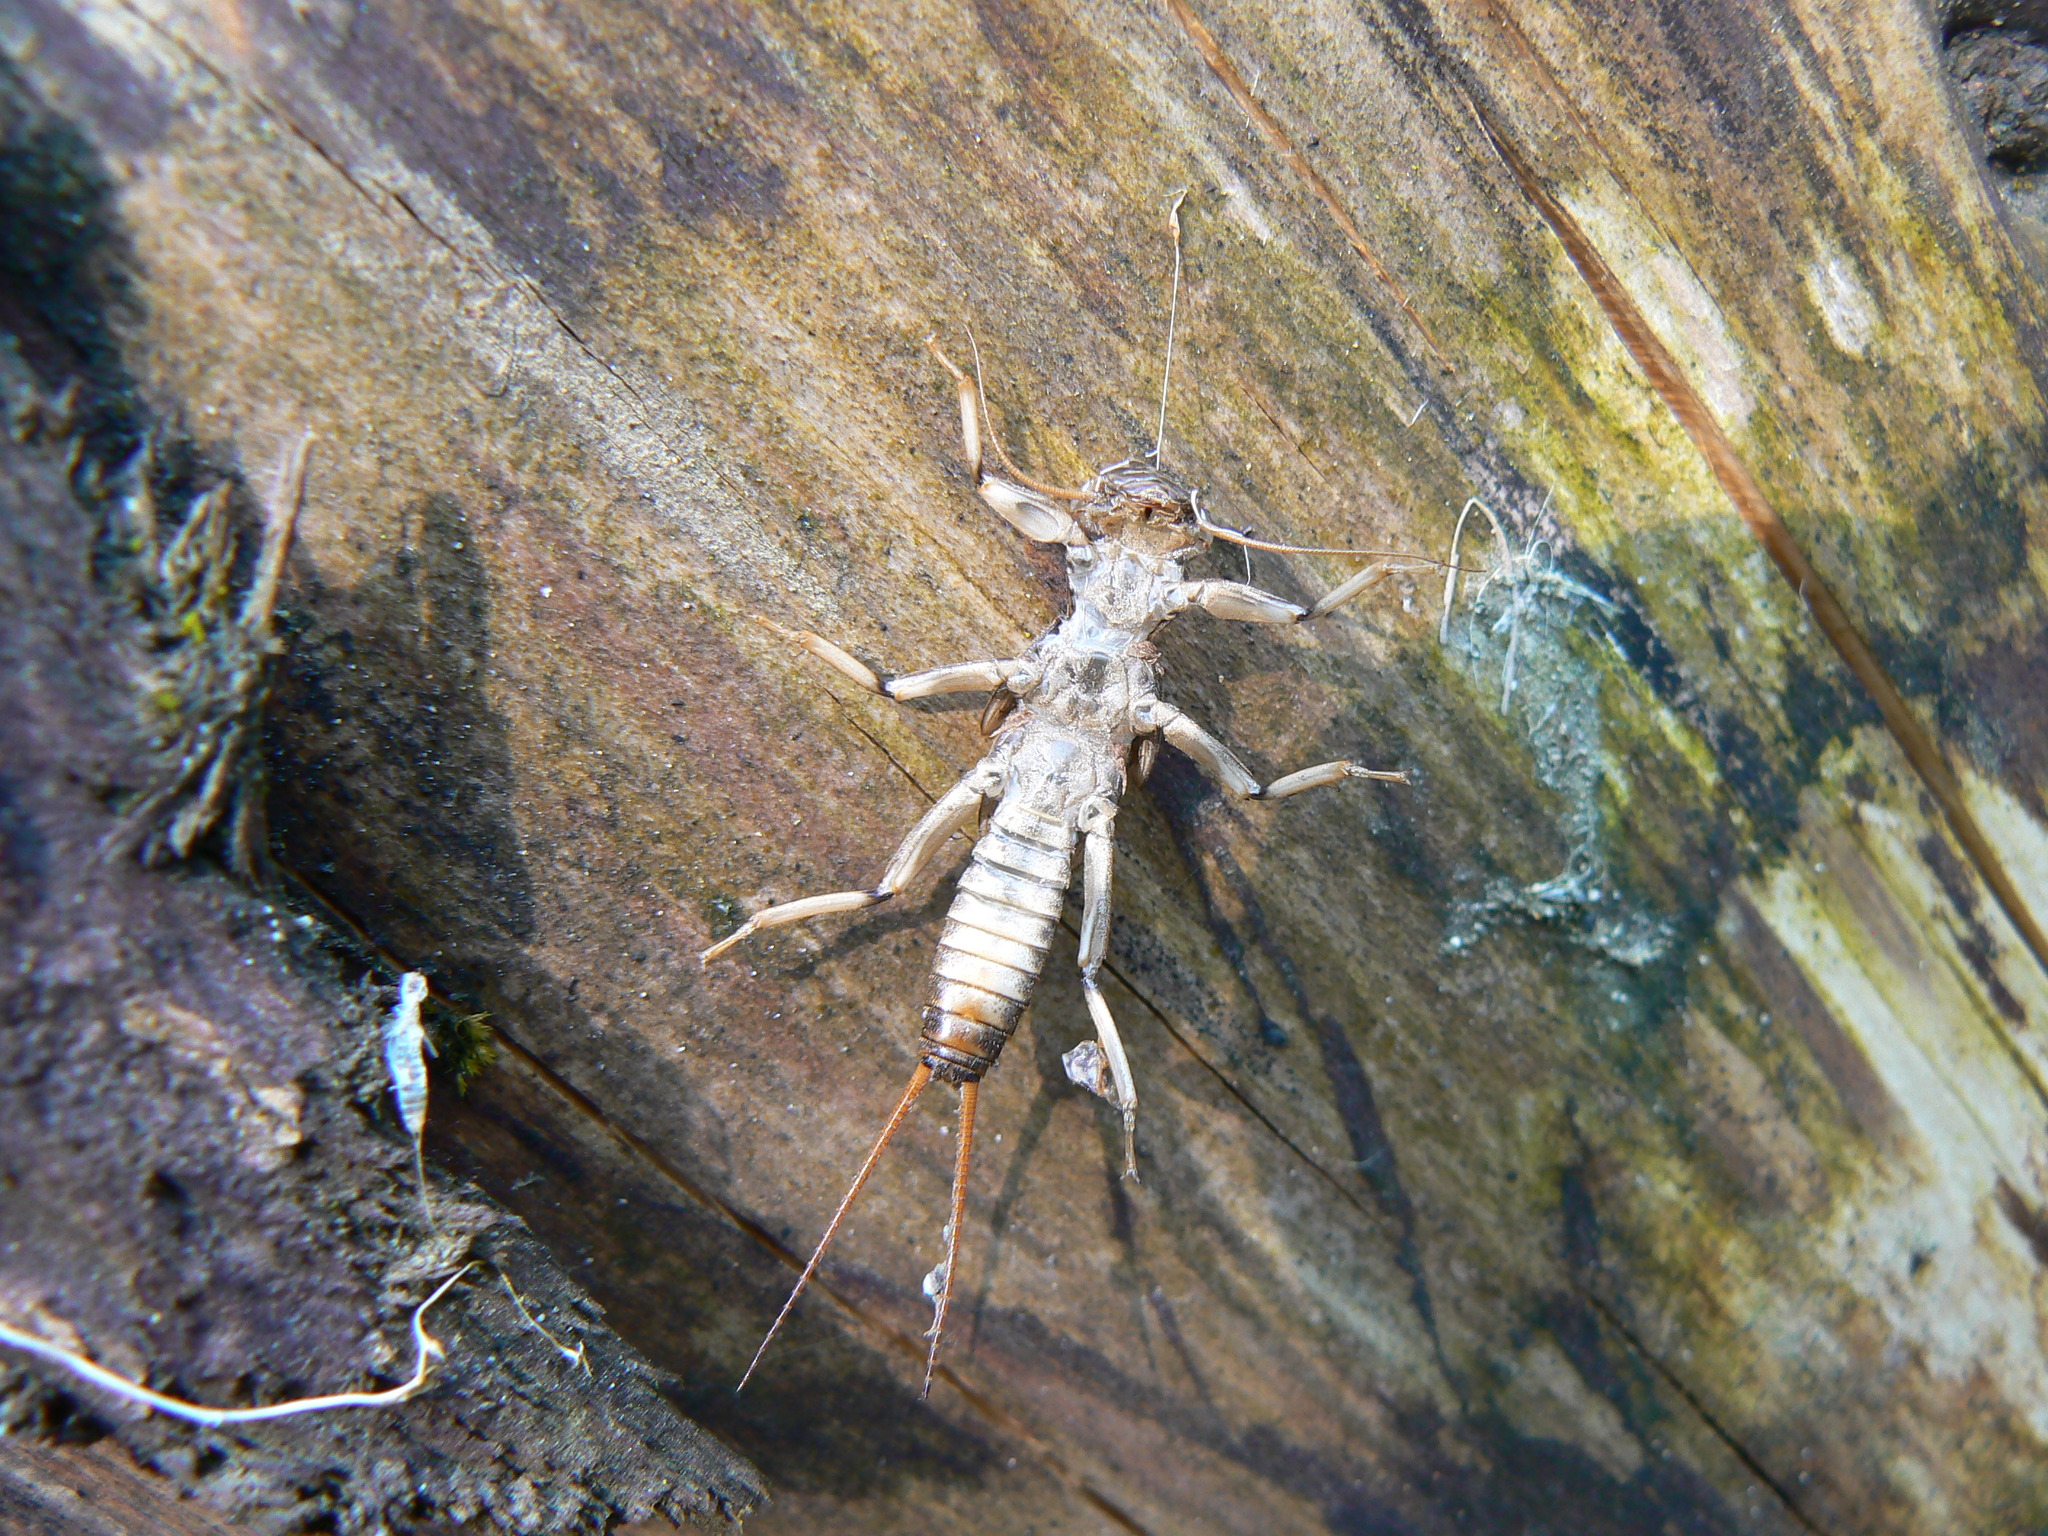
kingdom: Animalia
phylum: Arthropoda
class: Insecta
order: Plecoptera
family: Perlidae
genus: Hesperoperla
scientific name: Hesperoperla pacifica
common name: Golden stone
